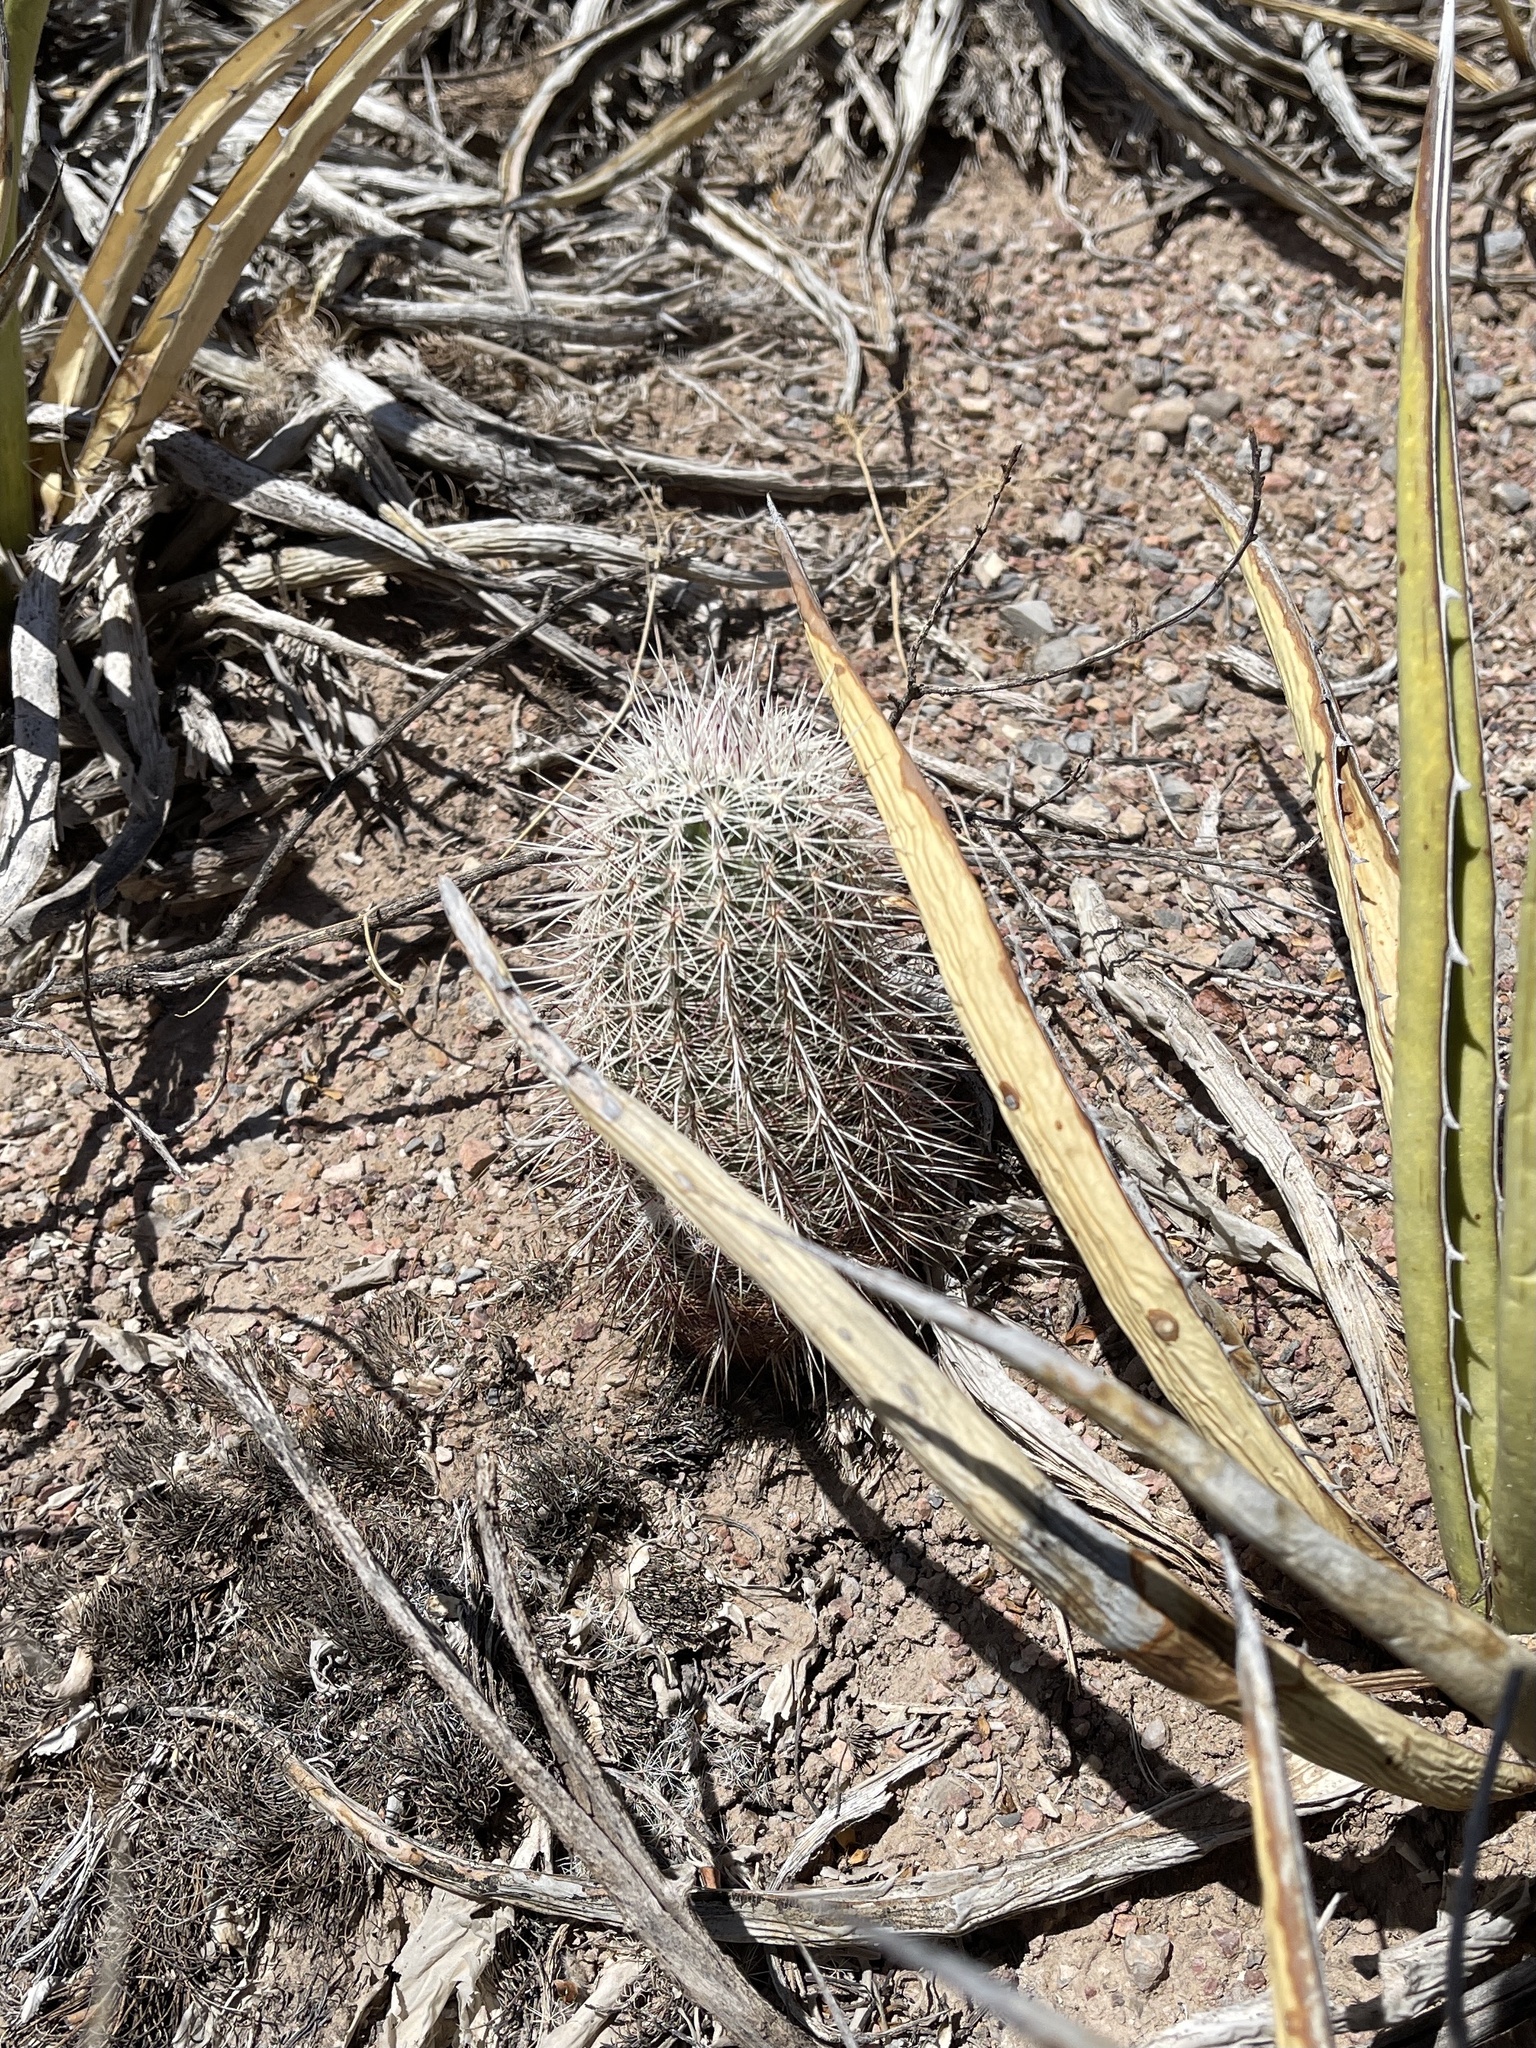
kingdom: Plantae
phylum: Tracheophyta
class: Magnoliopsida
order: Caryophyllales
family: Cactaceae
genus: Echinocereus
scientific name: Echinocereus viridiflorus
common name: Nylon hedgehog cactus
